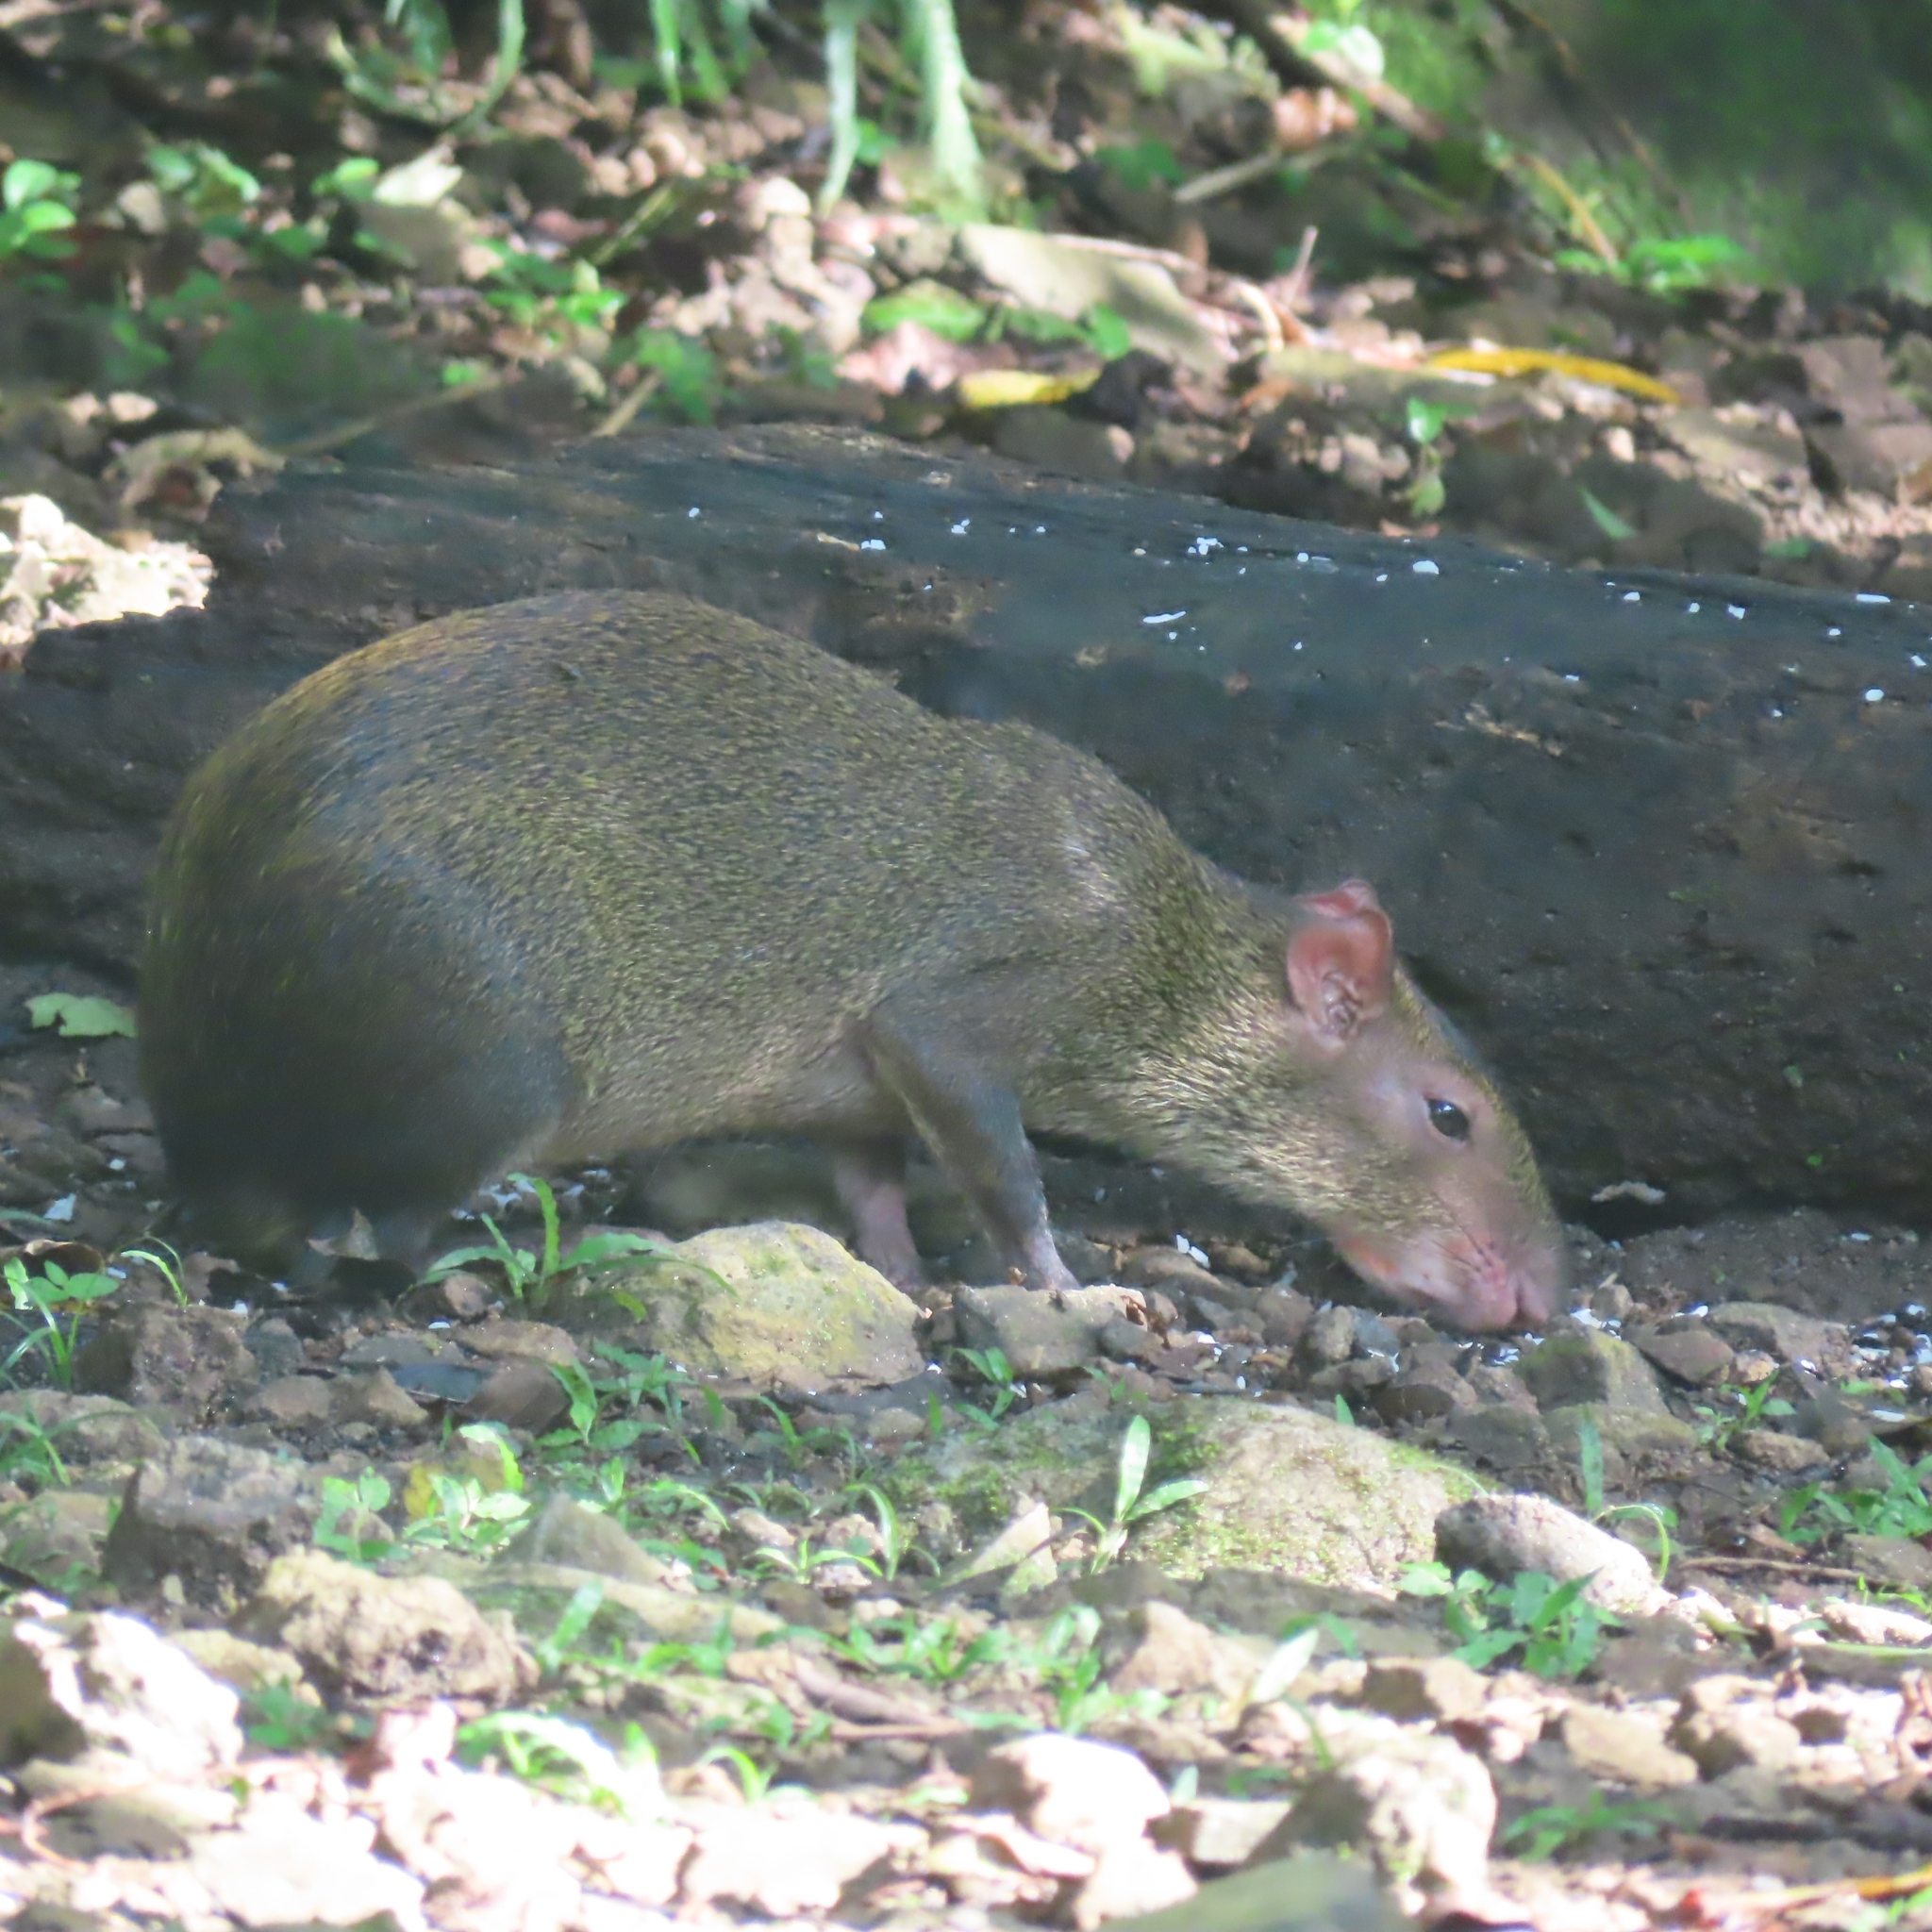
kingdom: Animalia
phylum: Chordata
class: Mammalia
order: Rodentia
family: Dasyproctidae
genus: Dasyprocta
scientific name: Dasyprocta punctata
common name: Central american agouti
